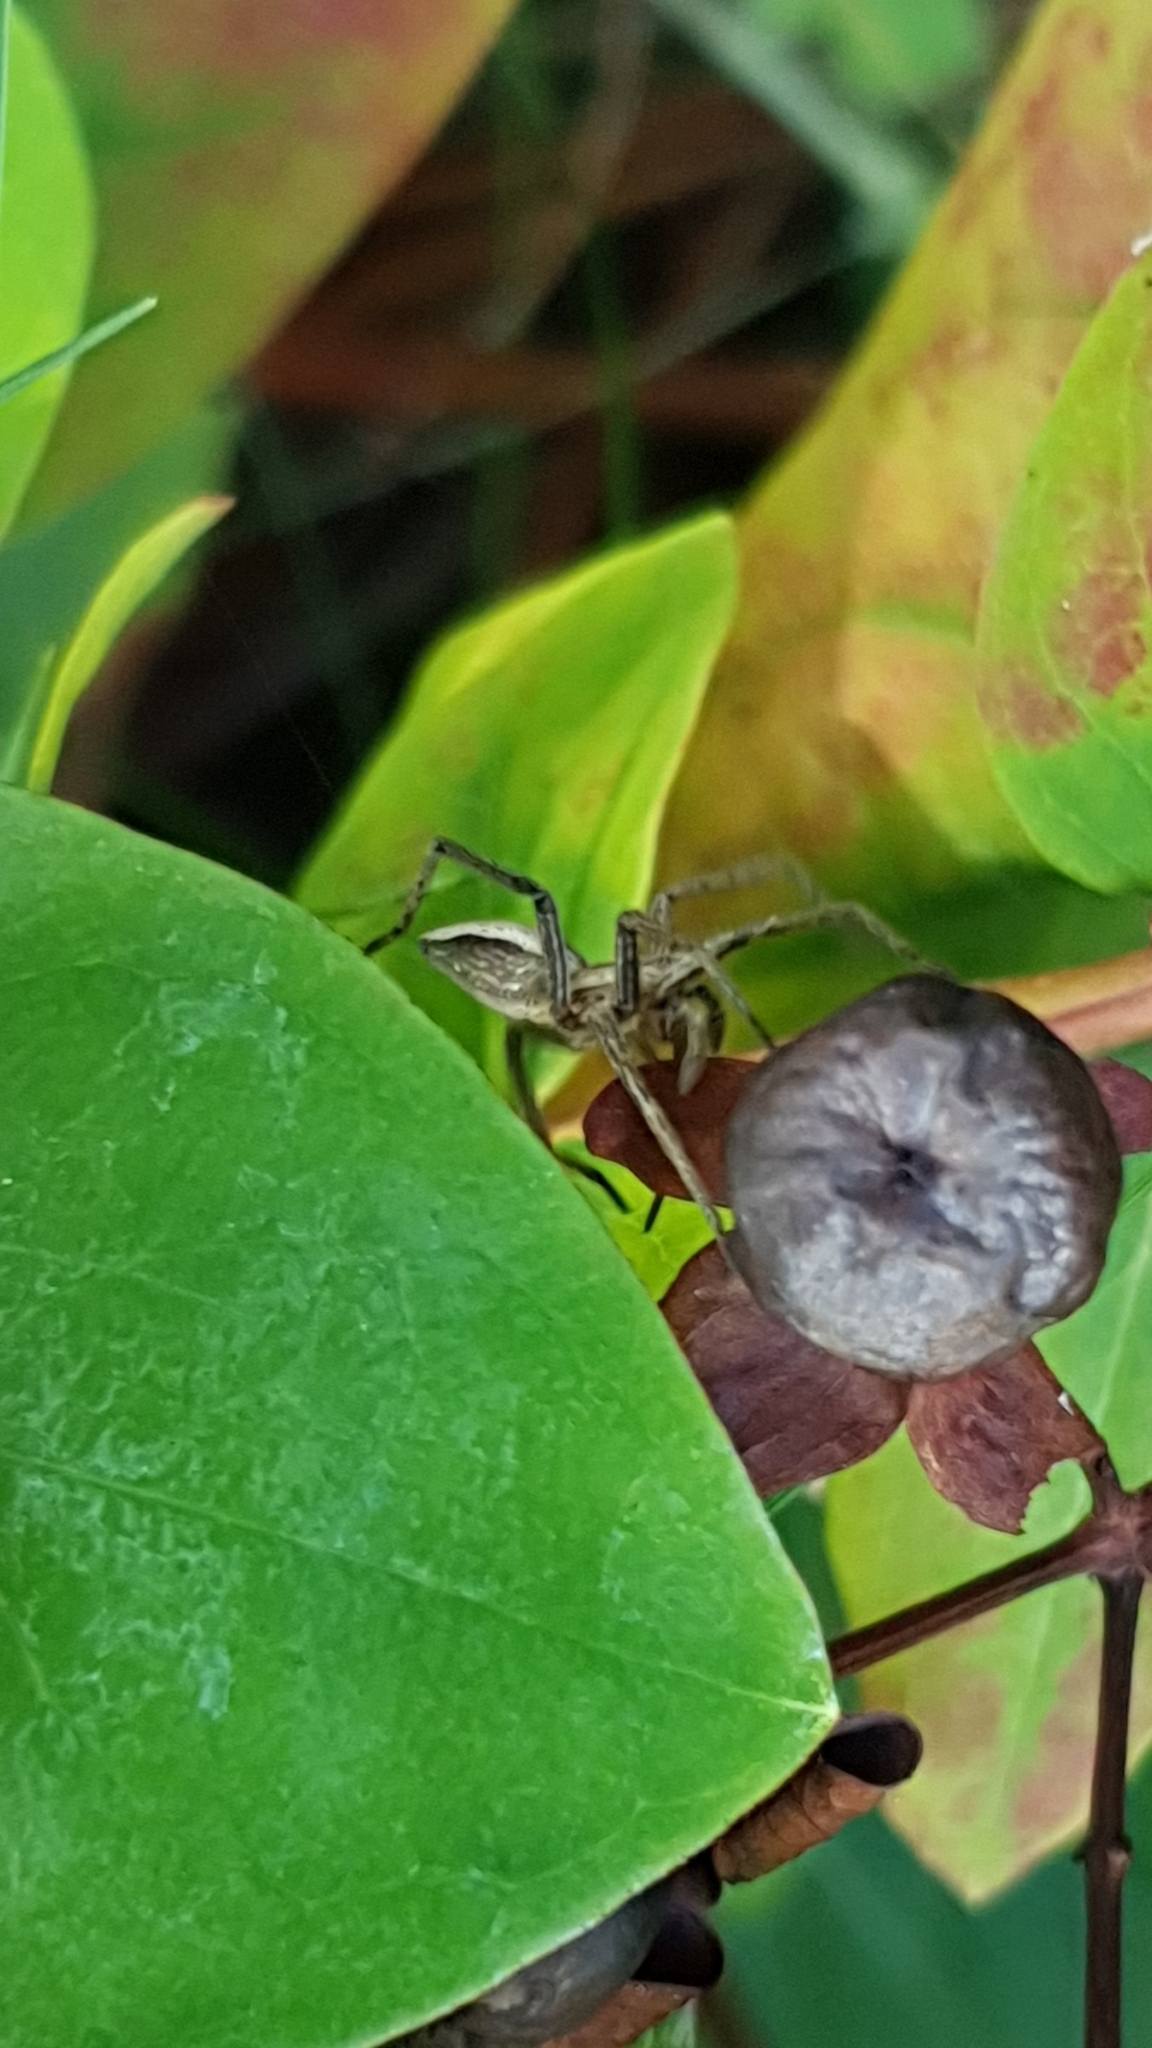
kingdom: Animalia
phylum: Arthropoda
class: Arachnida
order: Araneae
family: Pisauridae
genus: Pisaura
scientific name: Pisaura mirabilis
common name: Tent spider
